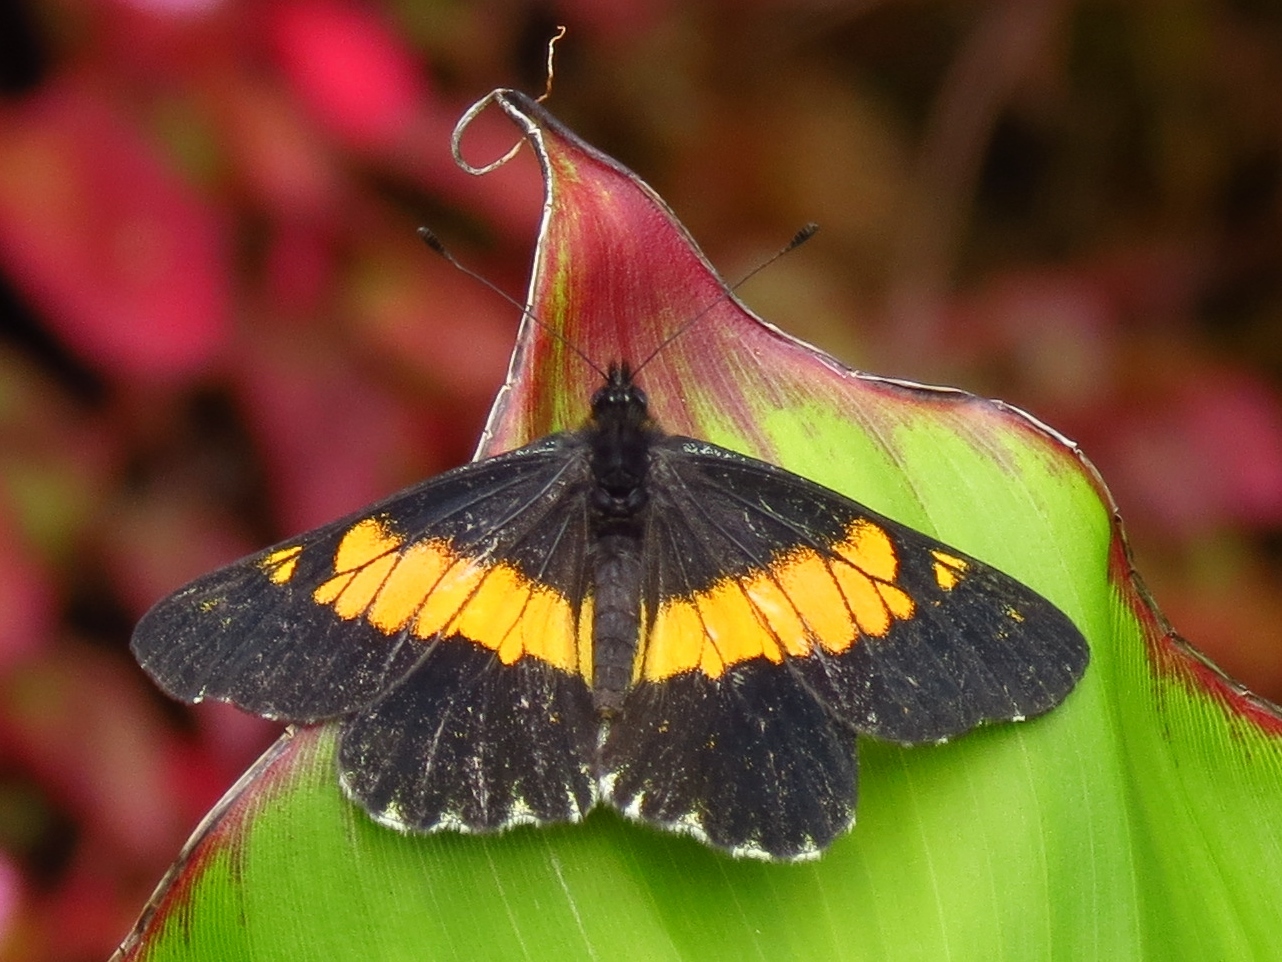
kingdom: Animalia
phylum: Arthropoda
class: Insecta
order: Lepidoptera
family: Pieridae
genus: Archonias
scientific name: Archonias teutila
